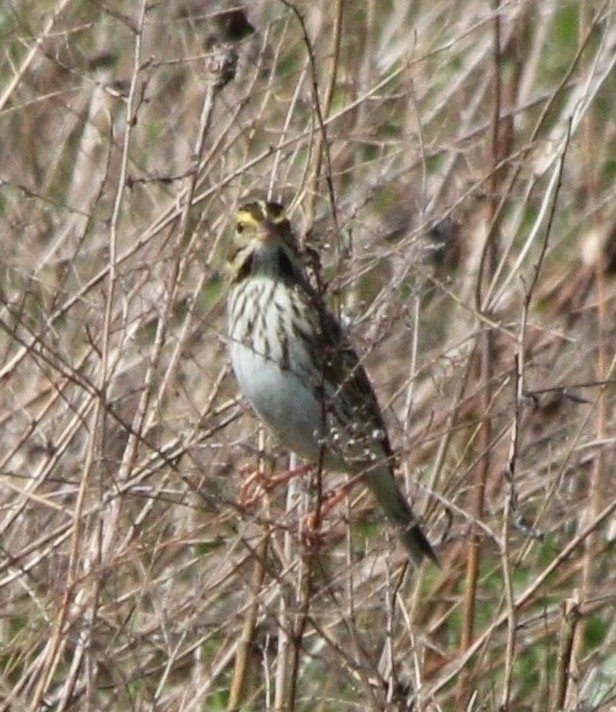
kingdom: Animalia
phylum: Chordata
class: Aves
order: Passeriformes
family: Passerellidae
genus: Passerculus
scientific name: Passerculus sandwichensis
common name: Savannah sparrow
